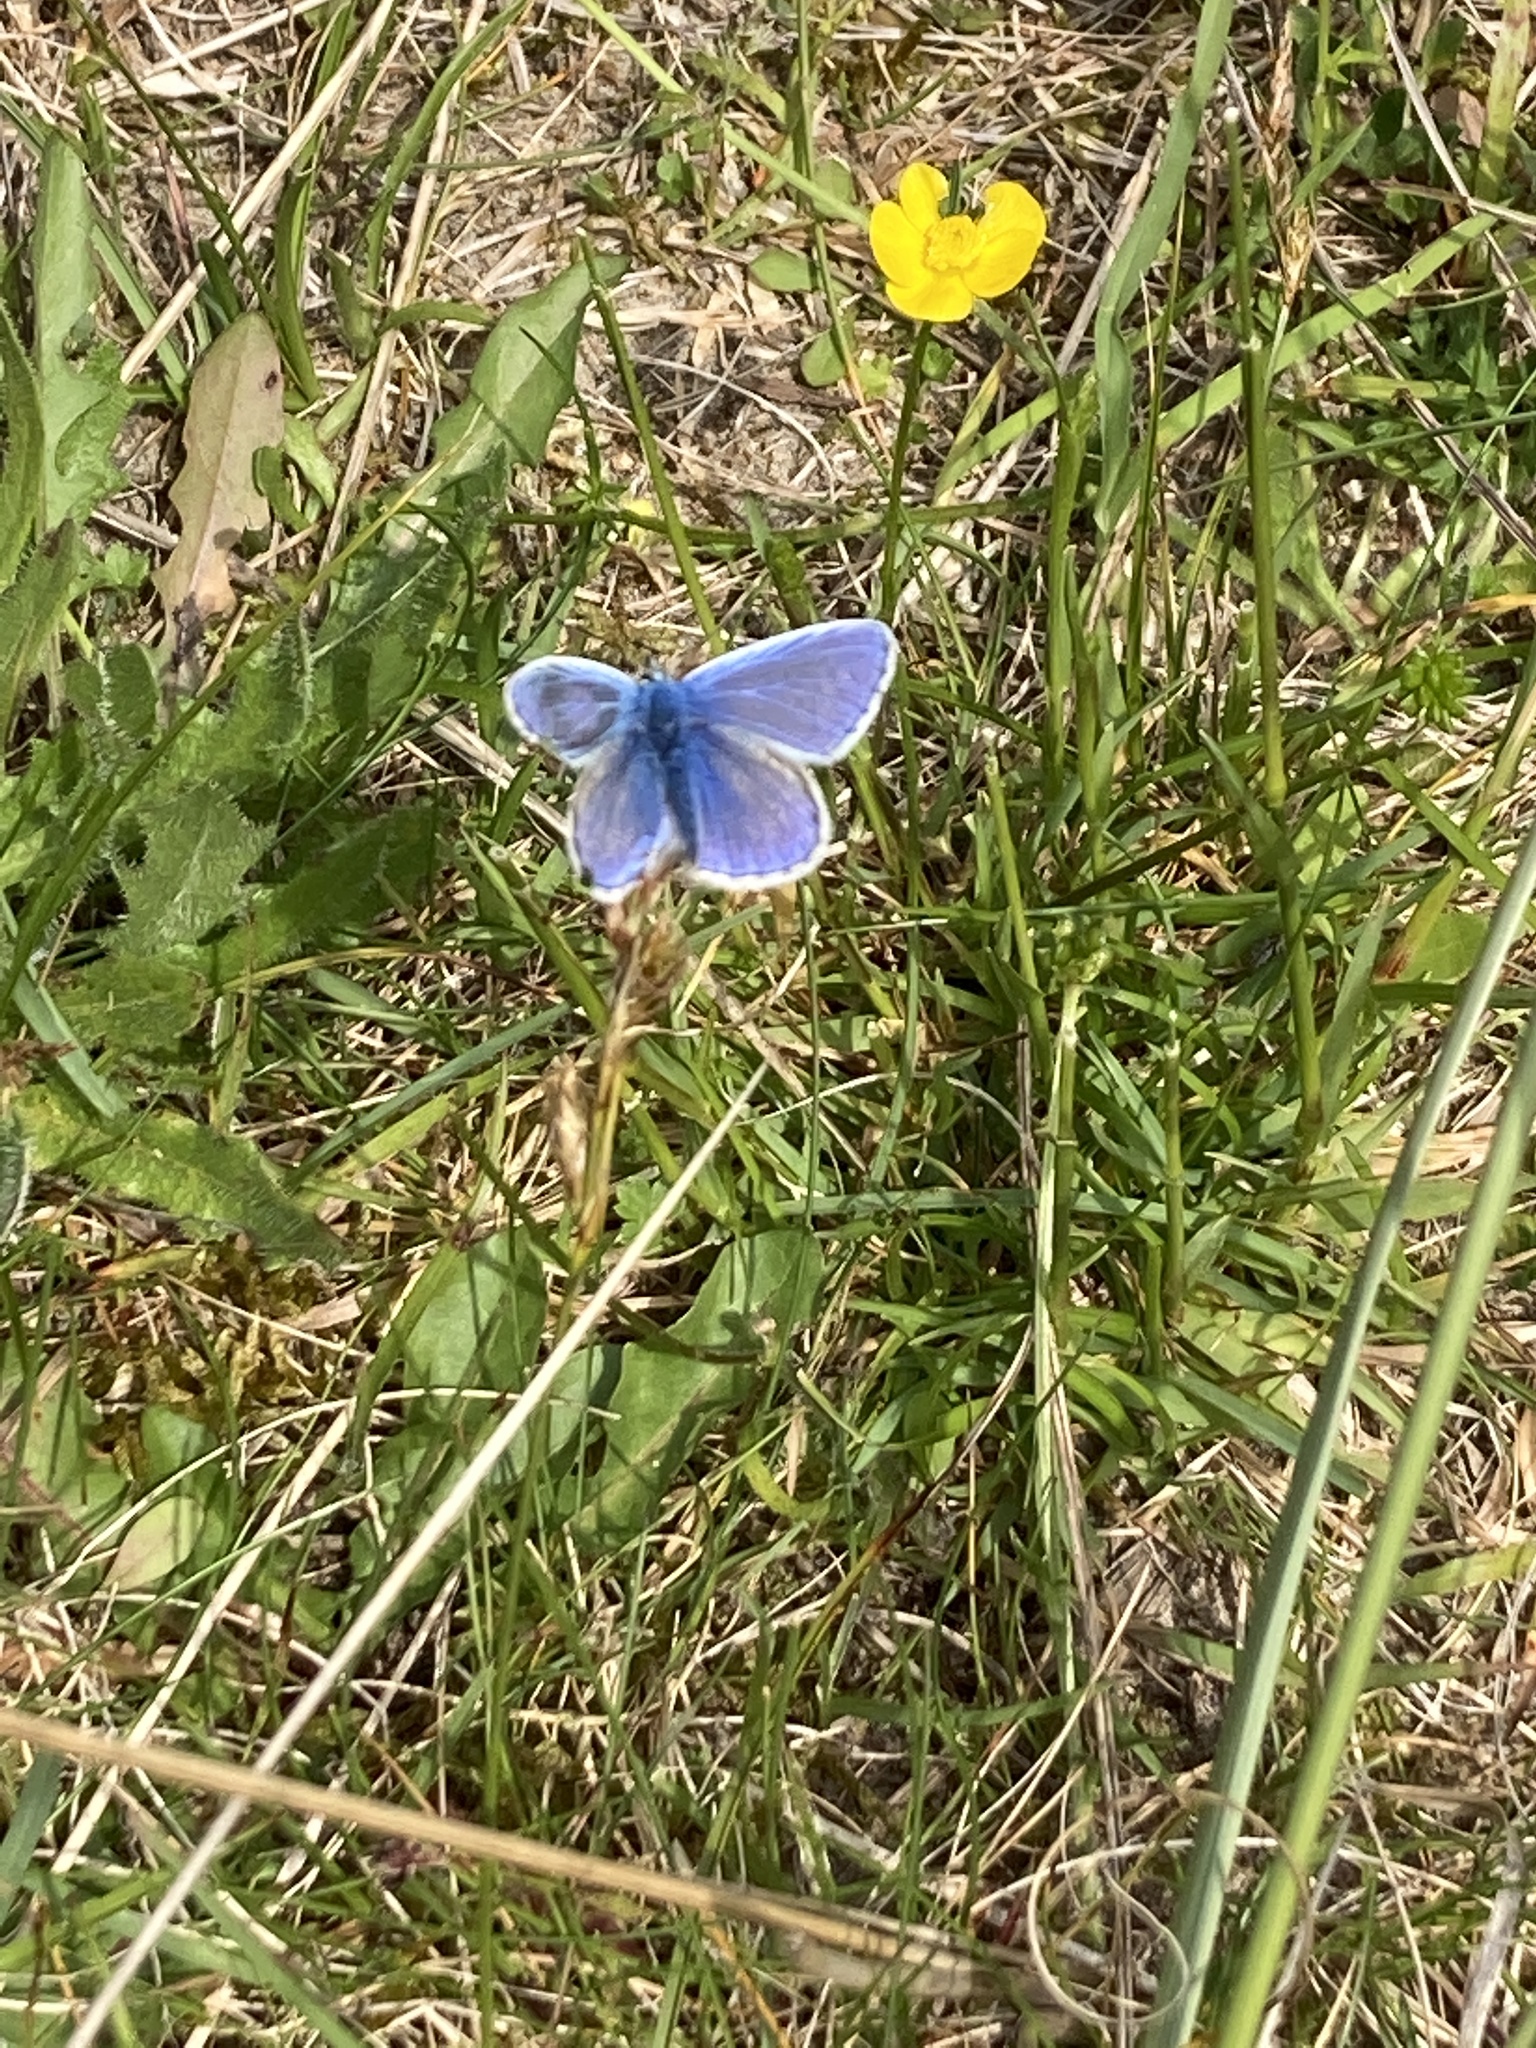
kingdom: Animalia
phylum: Arthropoda
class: Insecta
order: Lepidoptera
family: Lycaenidae
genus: Polyommatus
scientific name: Polyommatus icarus
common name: Common blue
